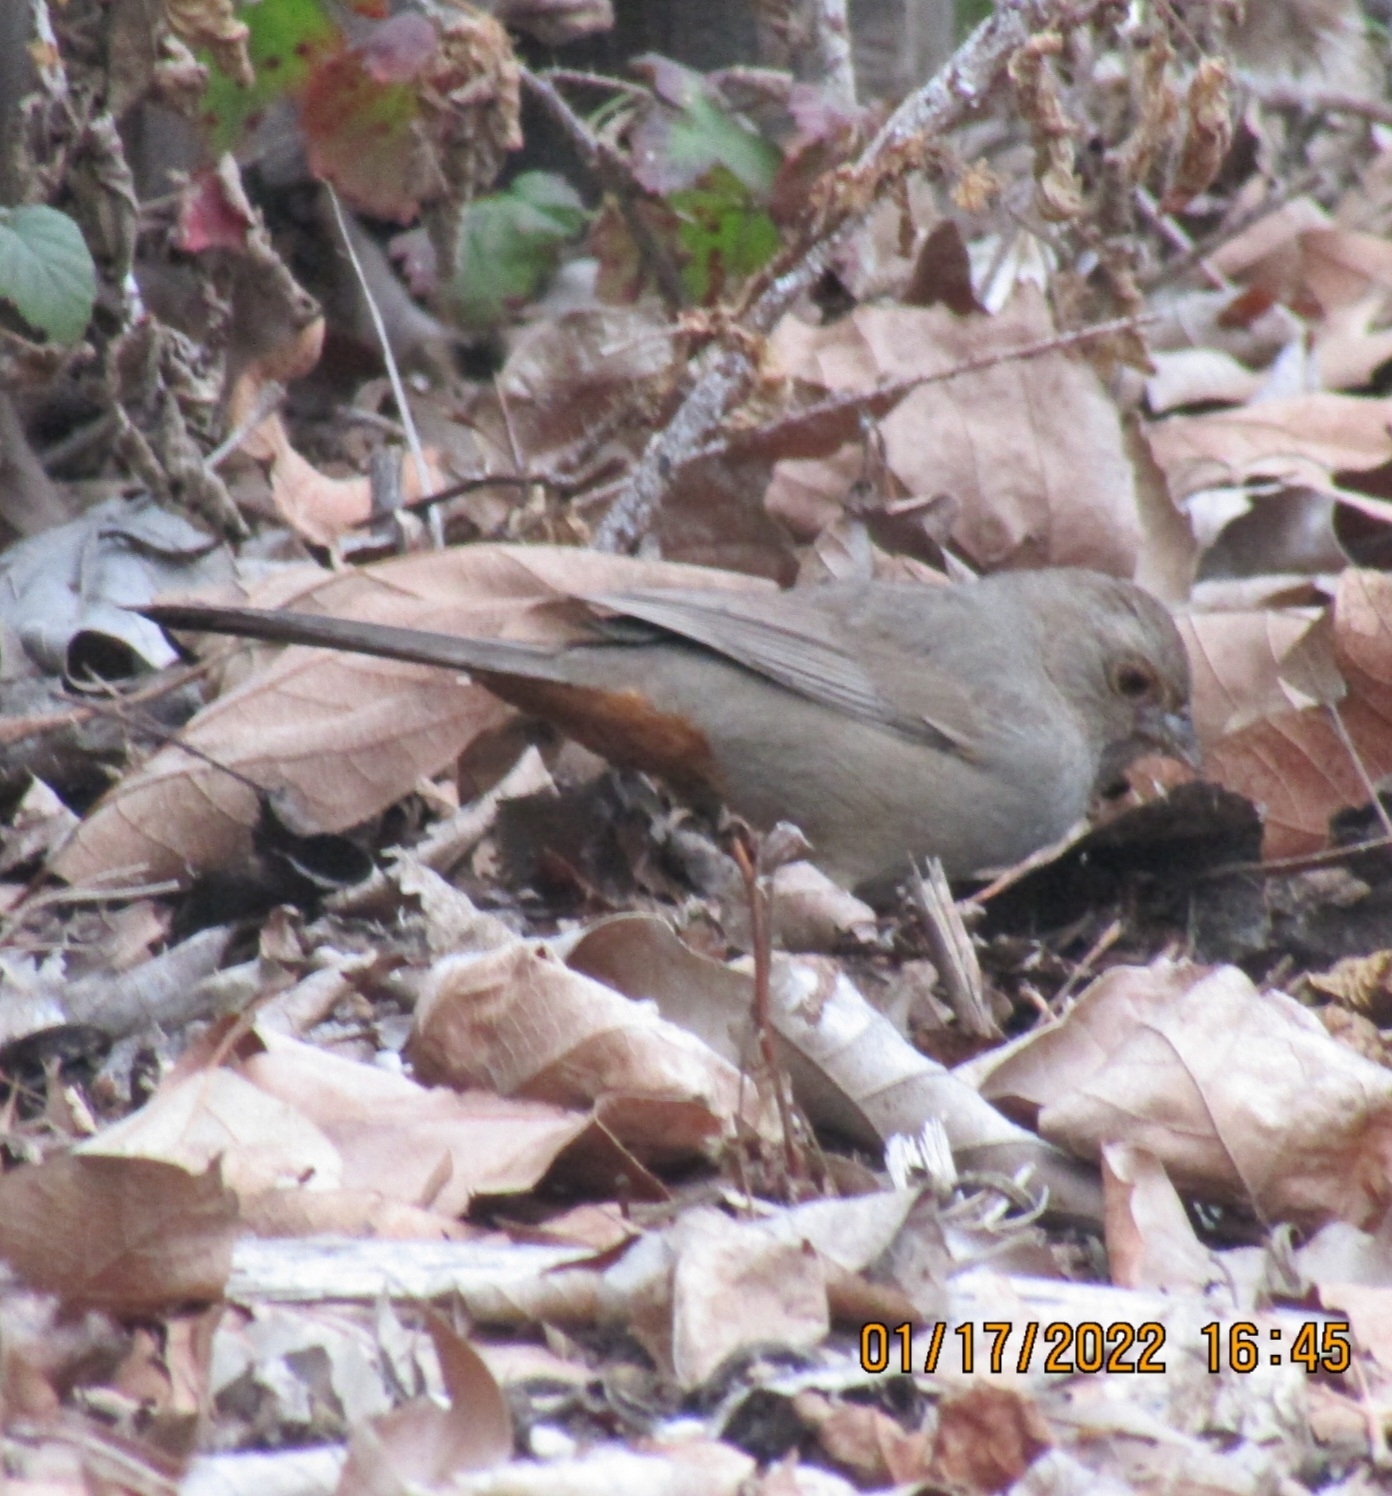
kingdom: Animalia
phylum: Chordata
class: Aves
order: Passeriformes
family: Passerellidae
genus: Melozone
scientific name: Melozone crissalis
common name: California towhee
